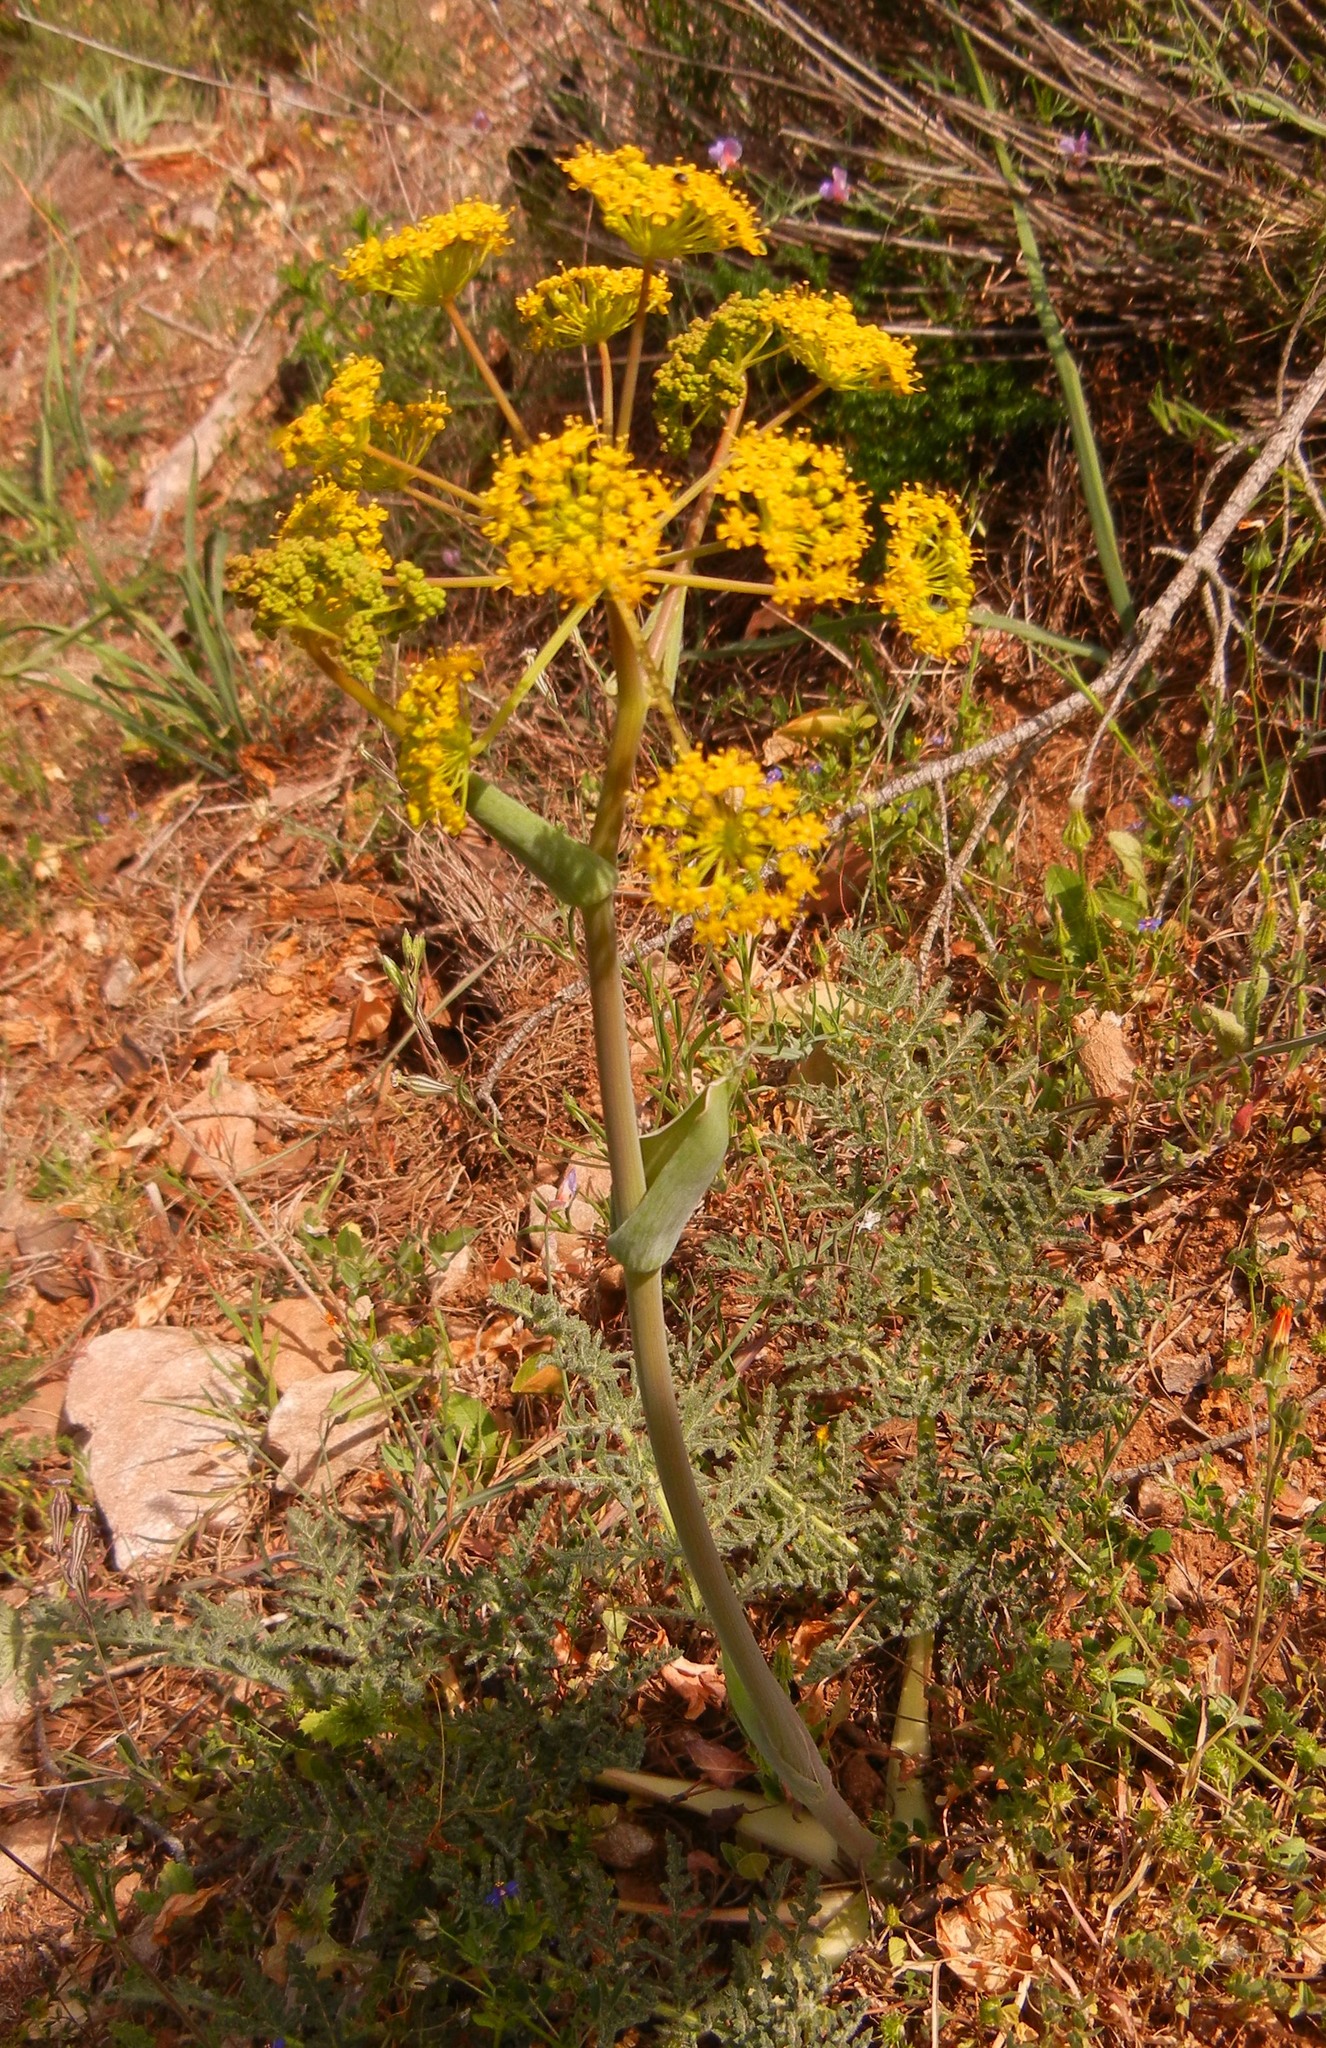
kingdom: Plantae
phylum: Tracheophyta
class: Magnoliopsida
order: Apiales
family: Apiaceae
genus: Thapsia
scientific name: Thapsia villosa
